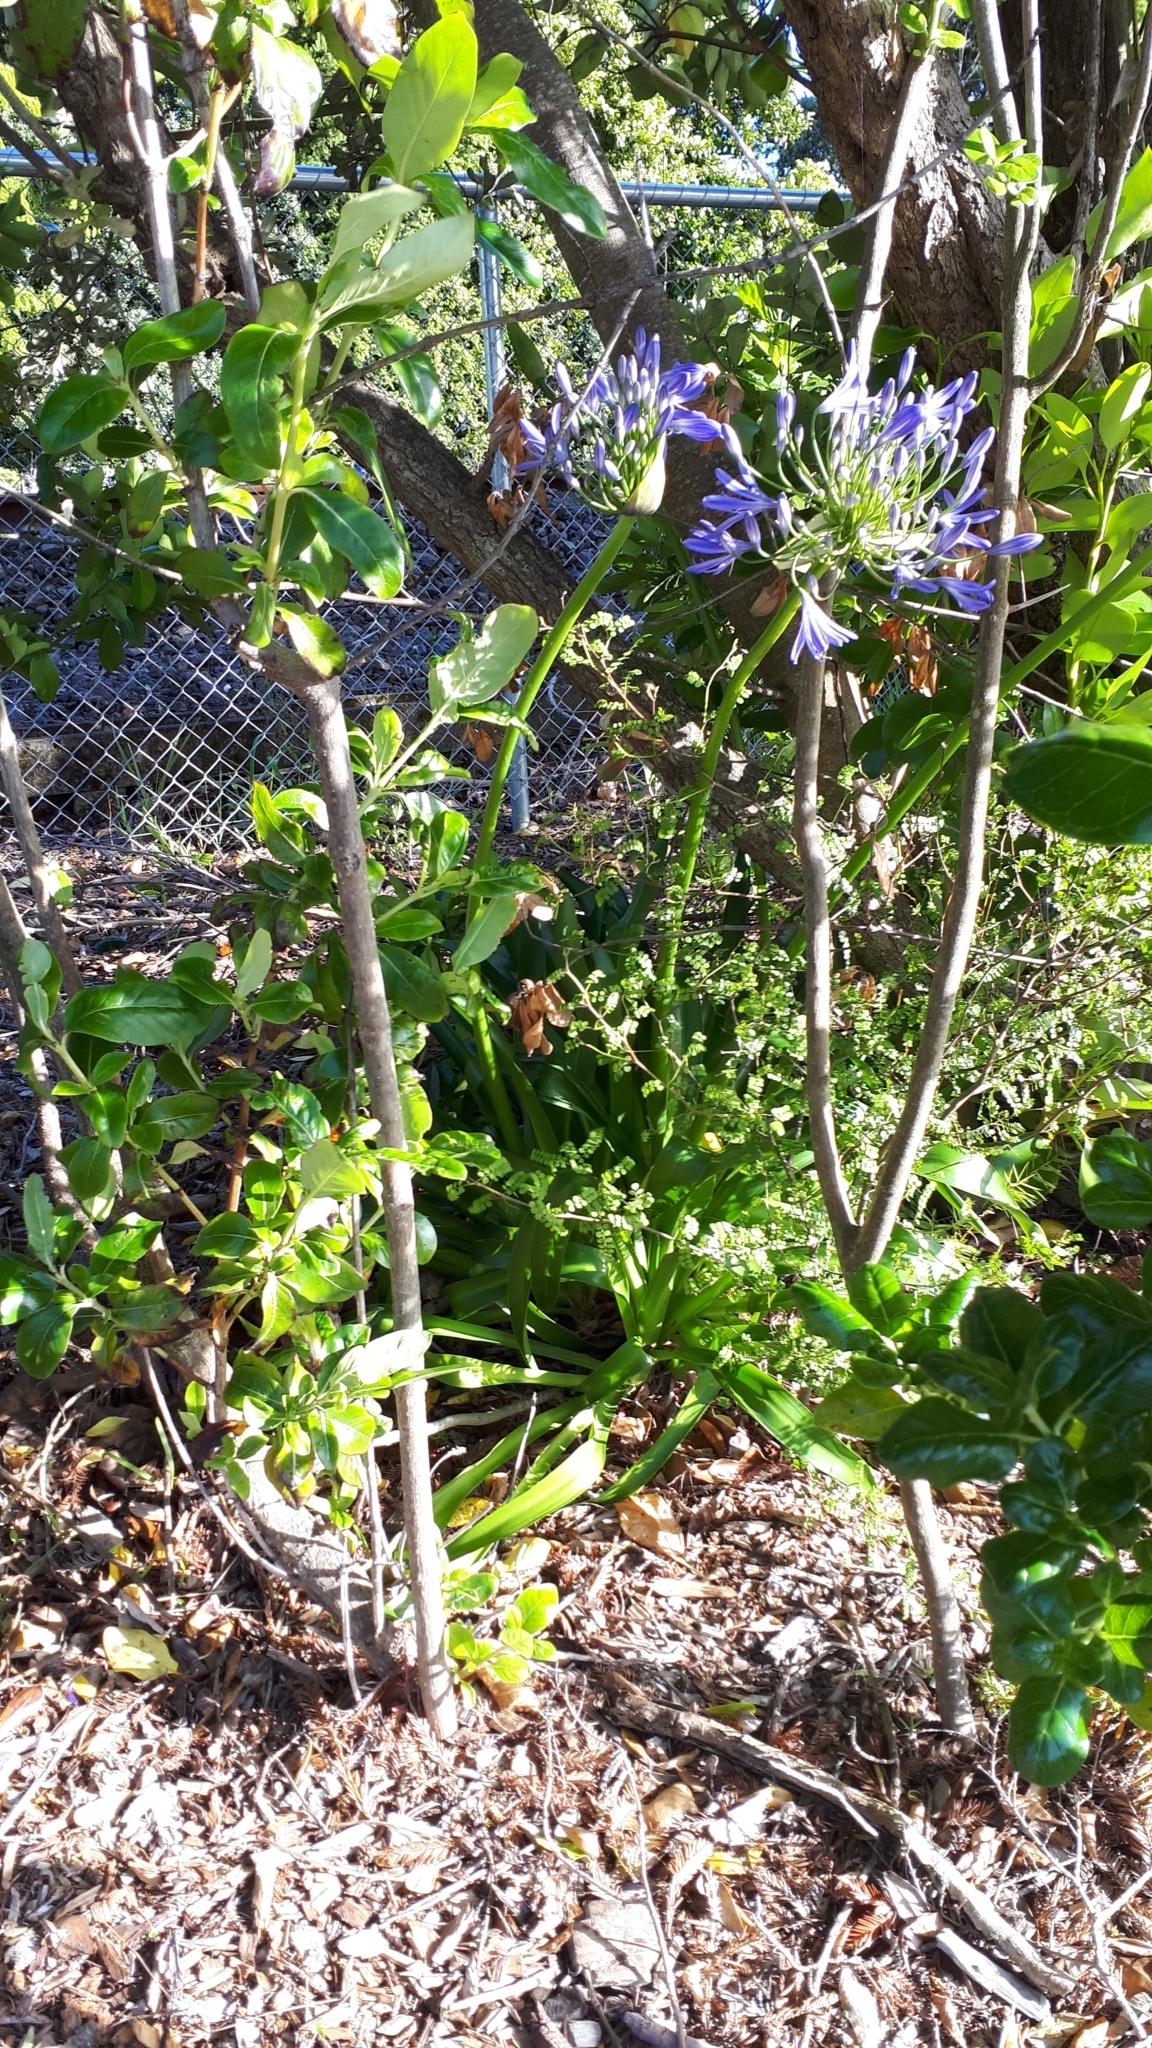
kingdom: Plantae
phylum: Tracheophyta
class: Liliopsida
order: Asparagales
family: Amaryllidaceae
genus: Agapanthus
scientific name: Agapanthus praecox
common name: African-lily
